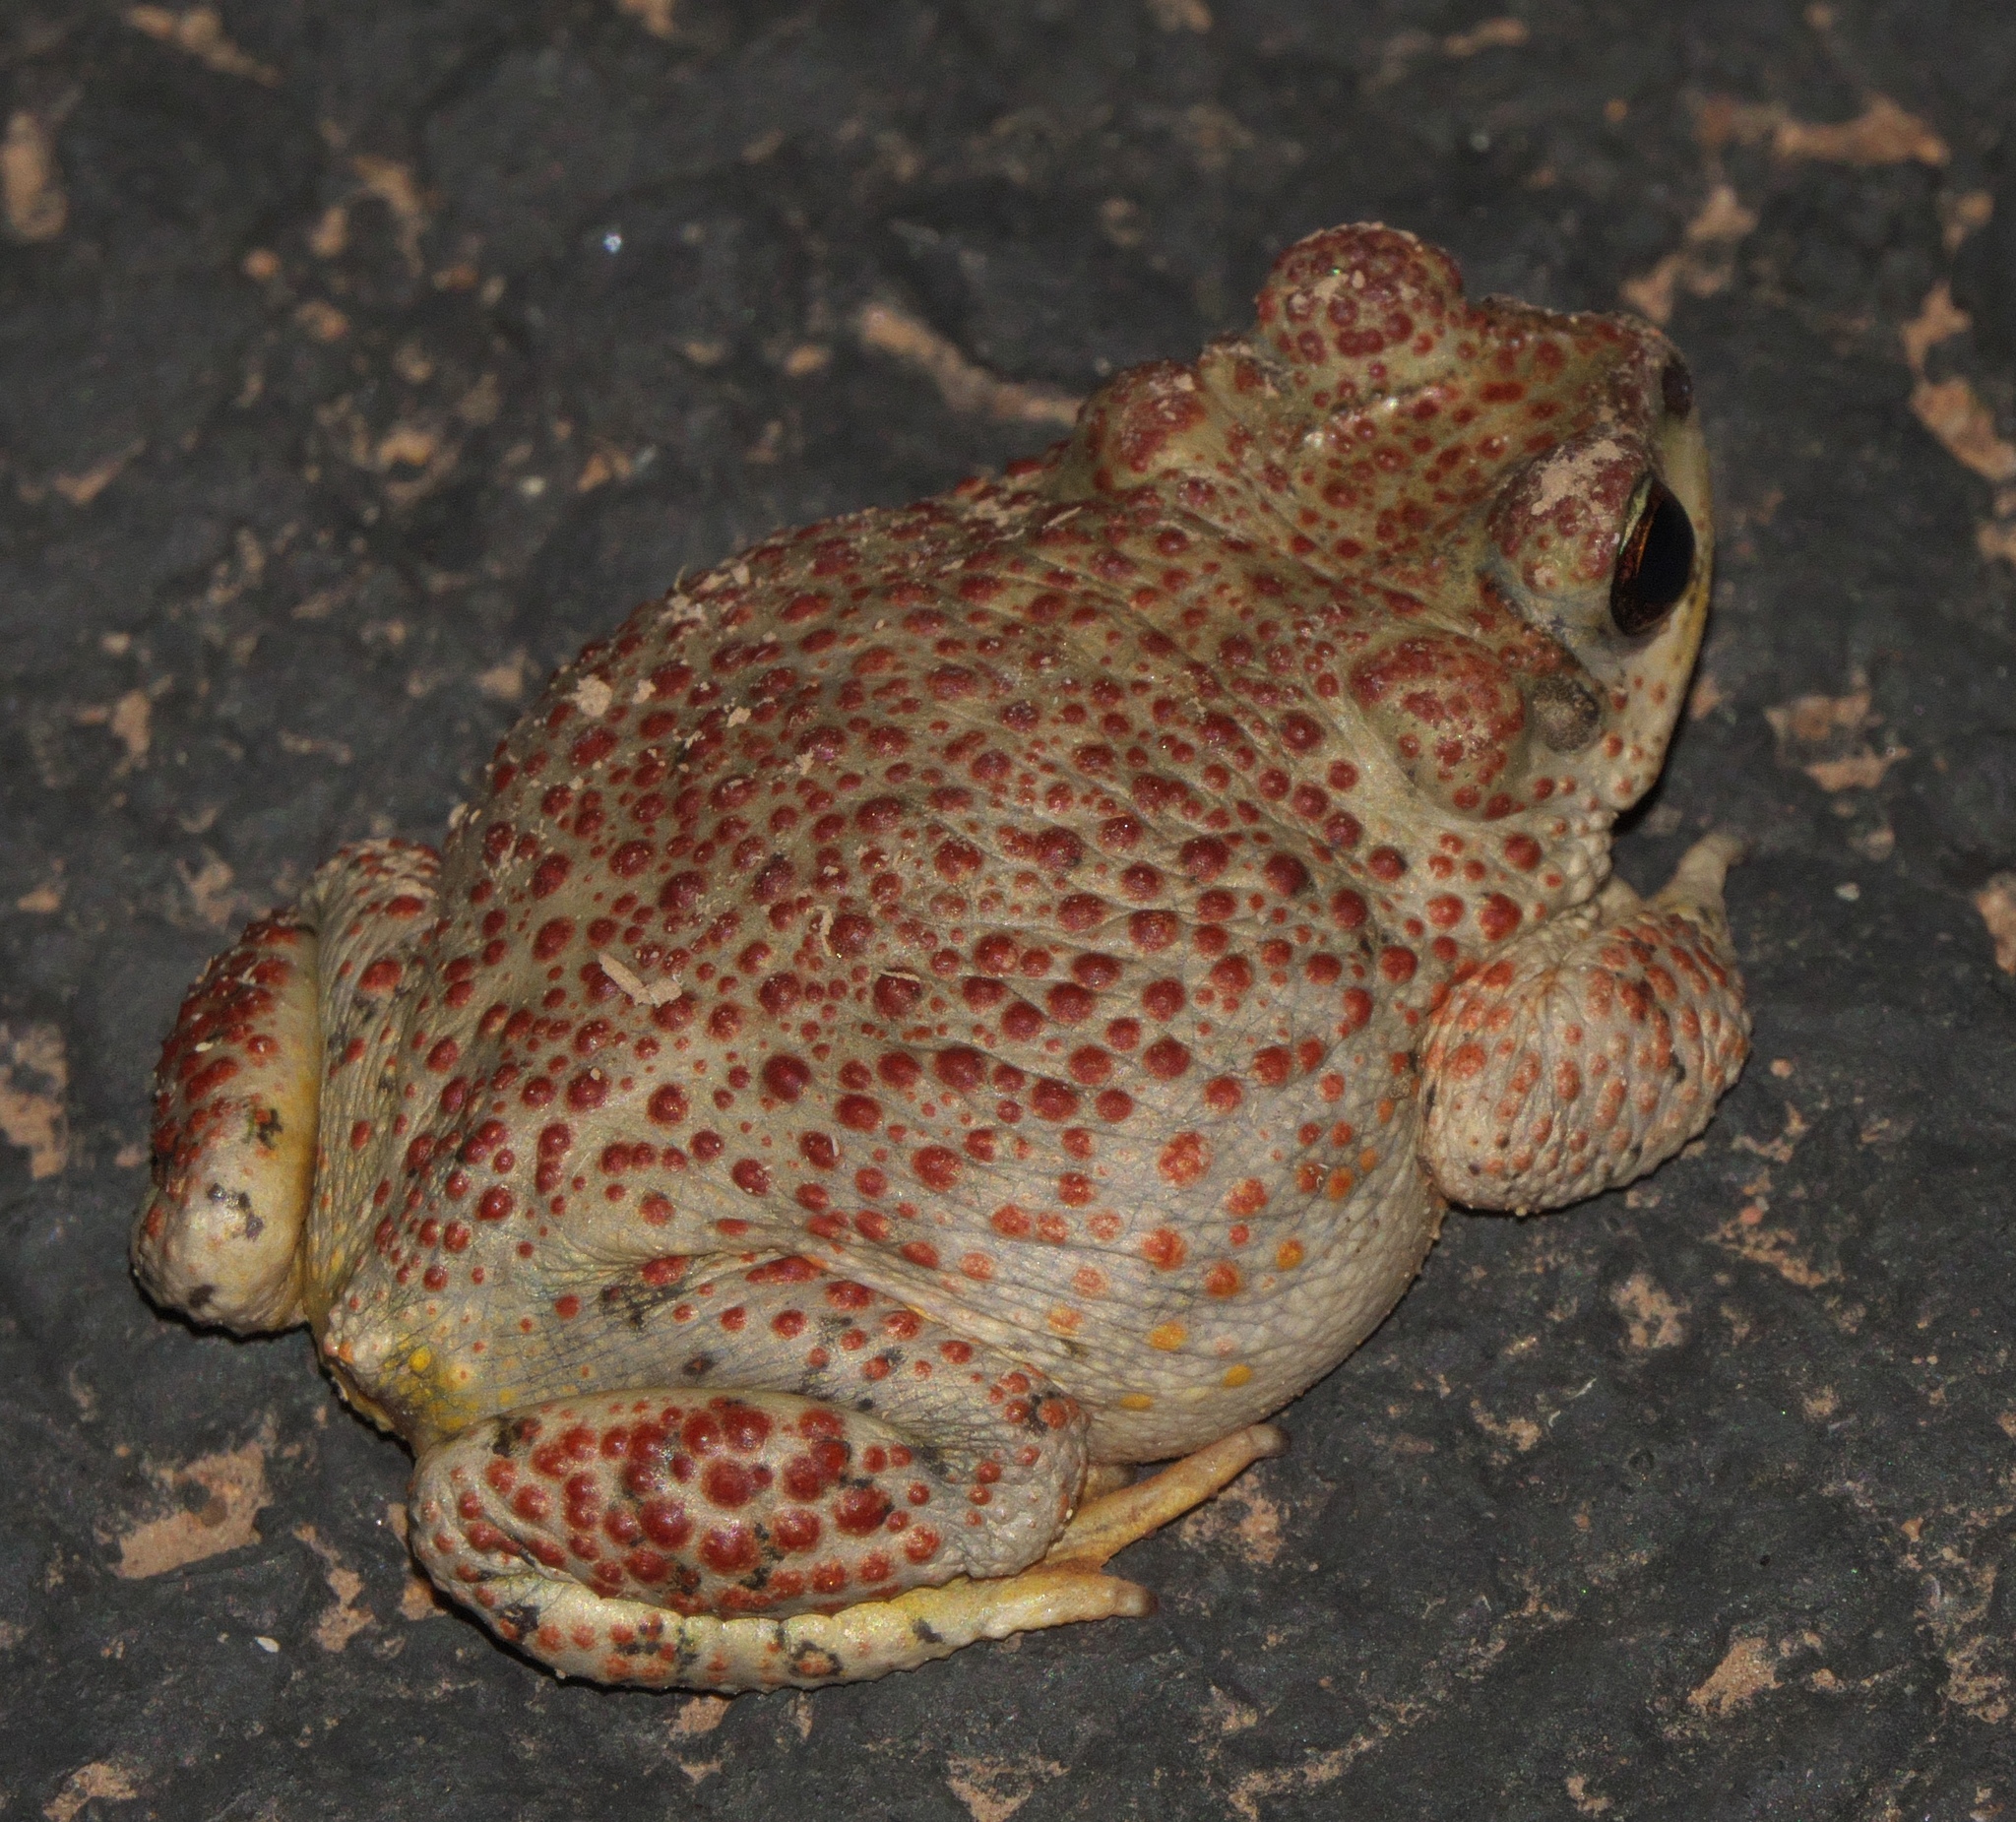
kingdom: Animalia
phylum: Chordata
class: Amphibia
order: Anura
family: Bufonidae
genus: Anaxyrus
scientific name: Anaxyrus punctatus
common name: Red-spotted toad
